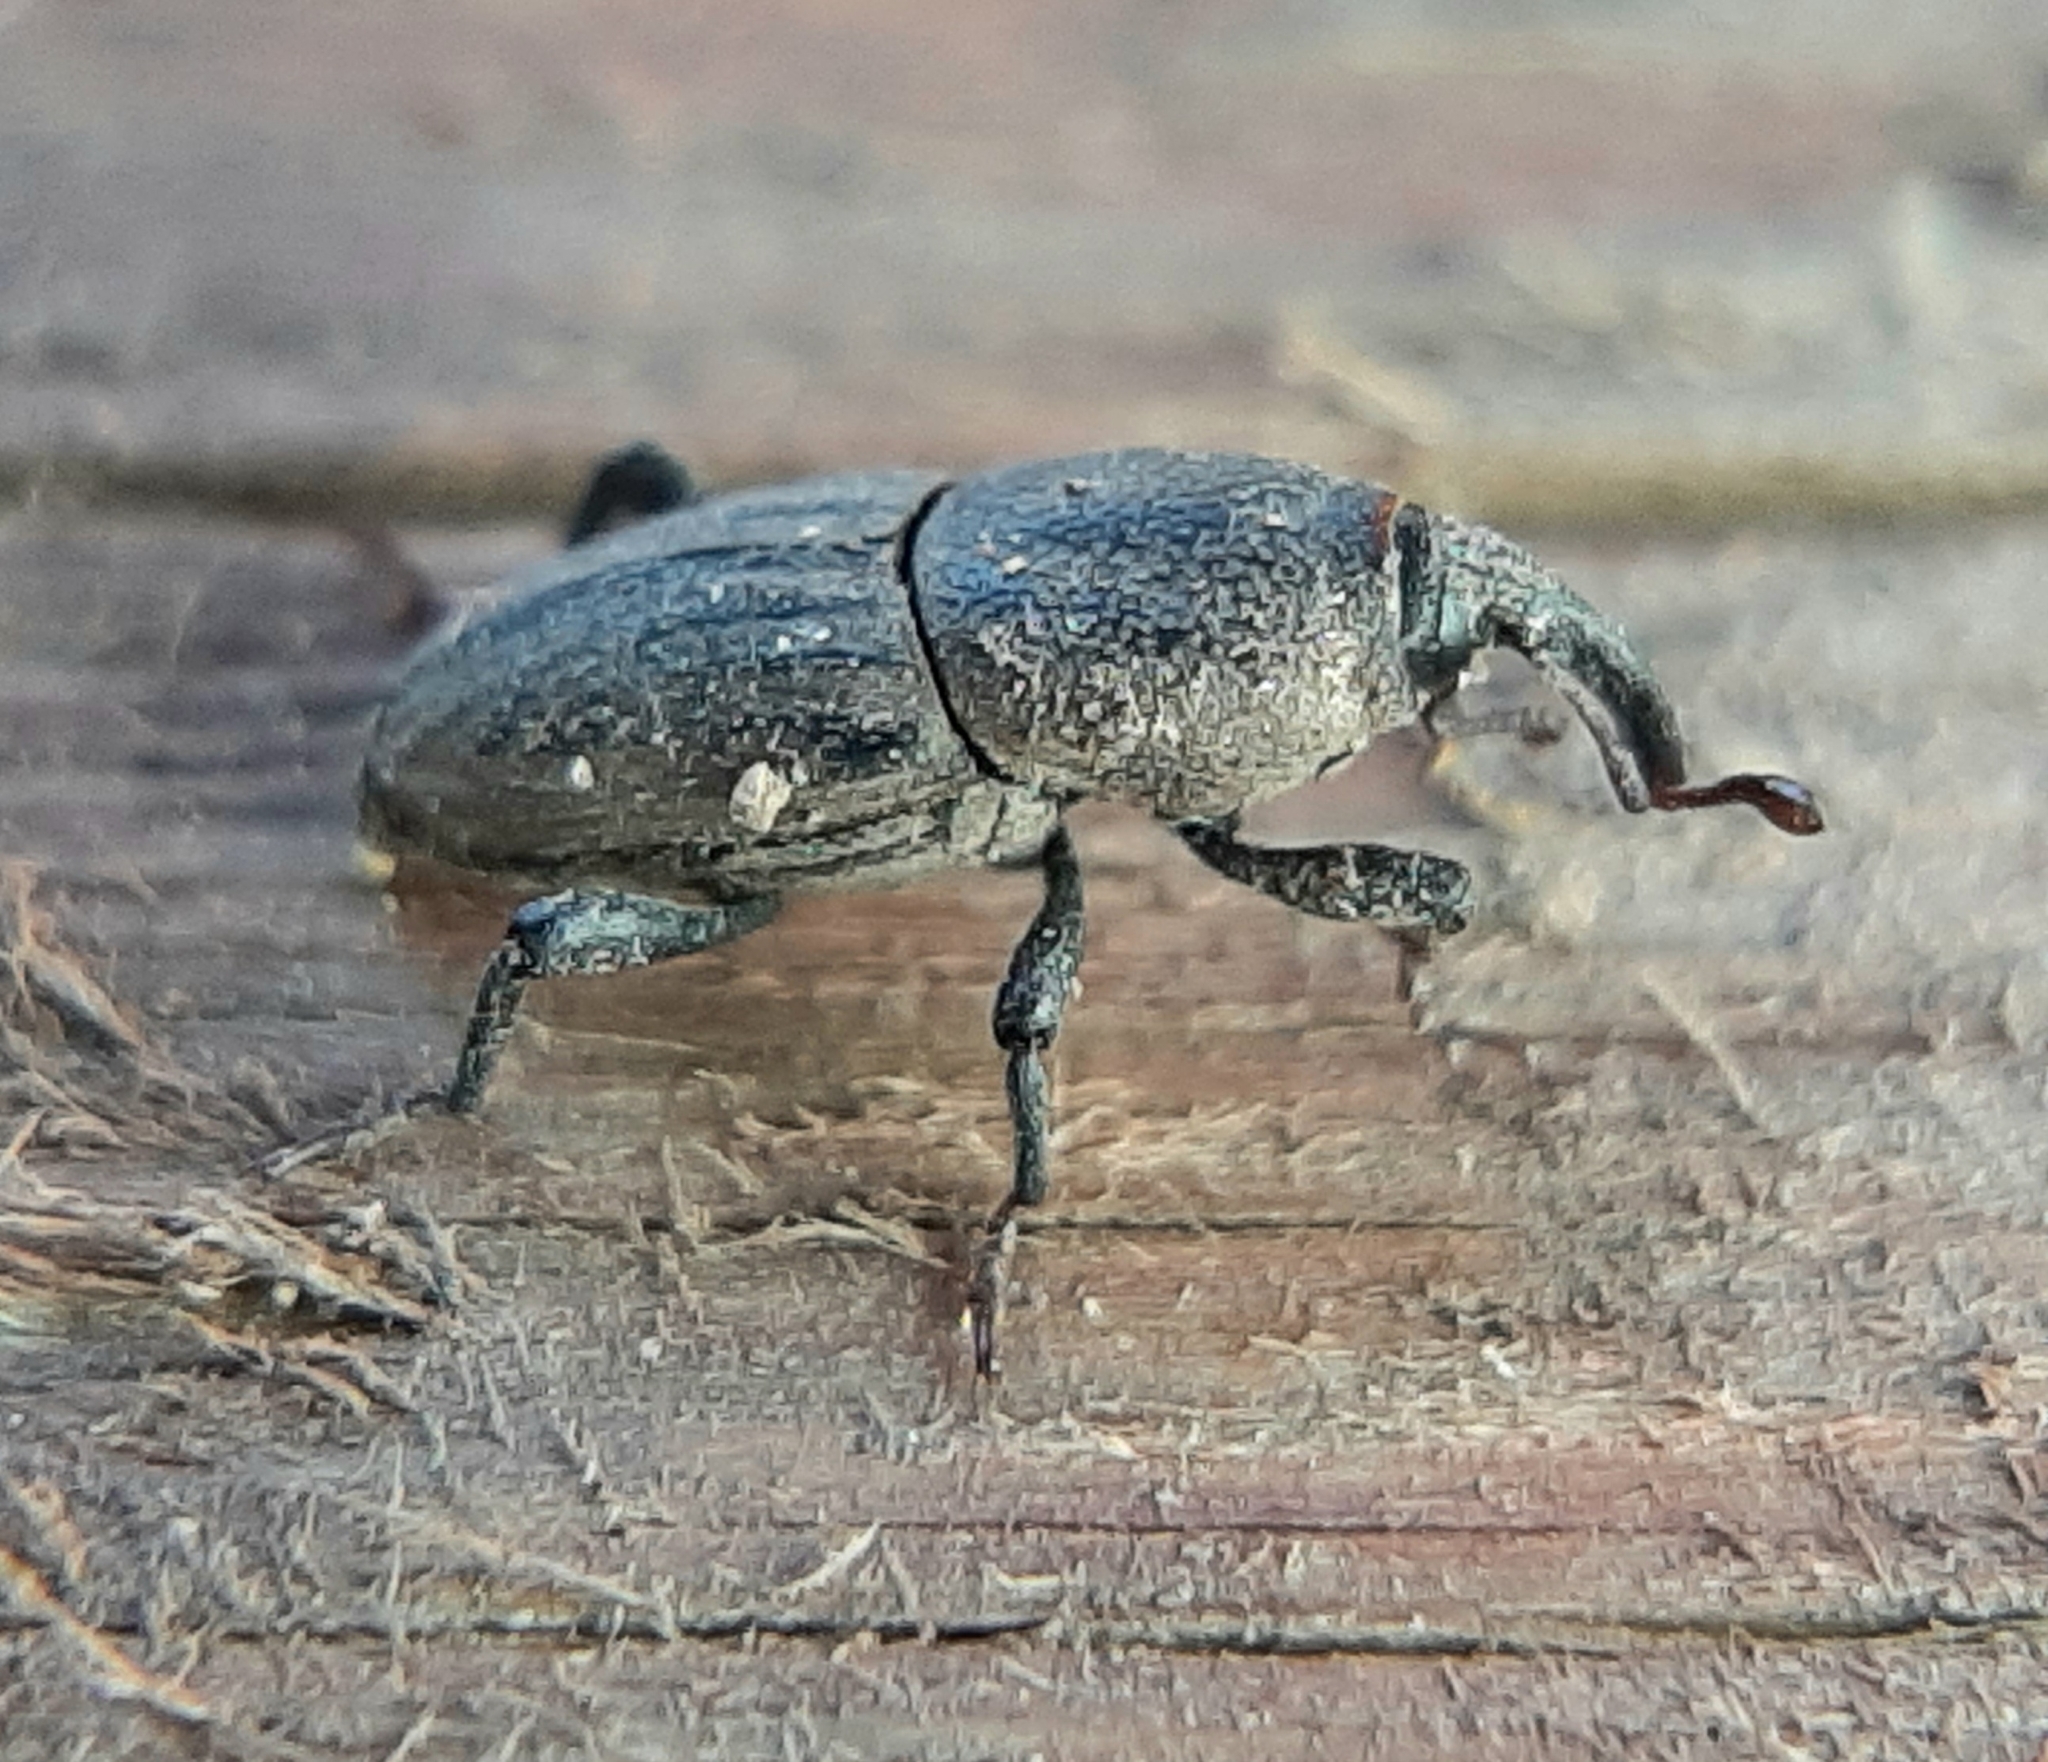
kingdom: Animalia
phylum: Arthropoda
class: Insecta
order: Coleoptera
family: Dryophthoridae
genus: Sphenophorus
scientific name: Sphenophorus interstitialis
